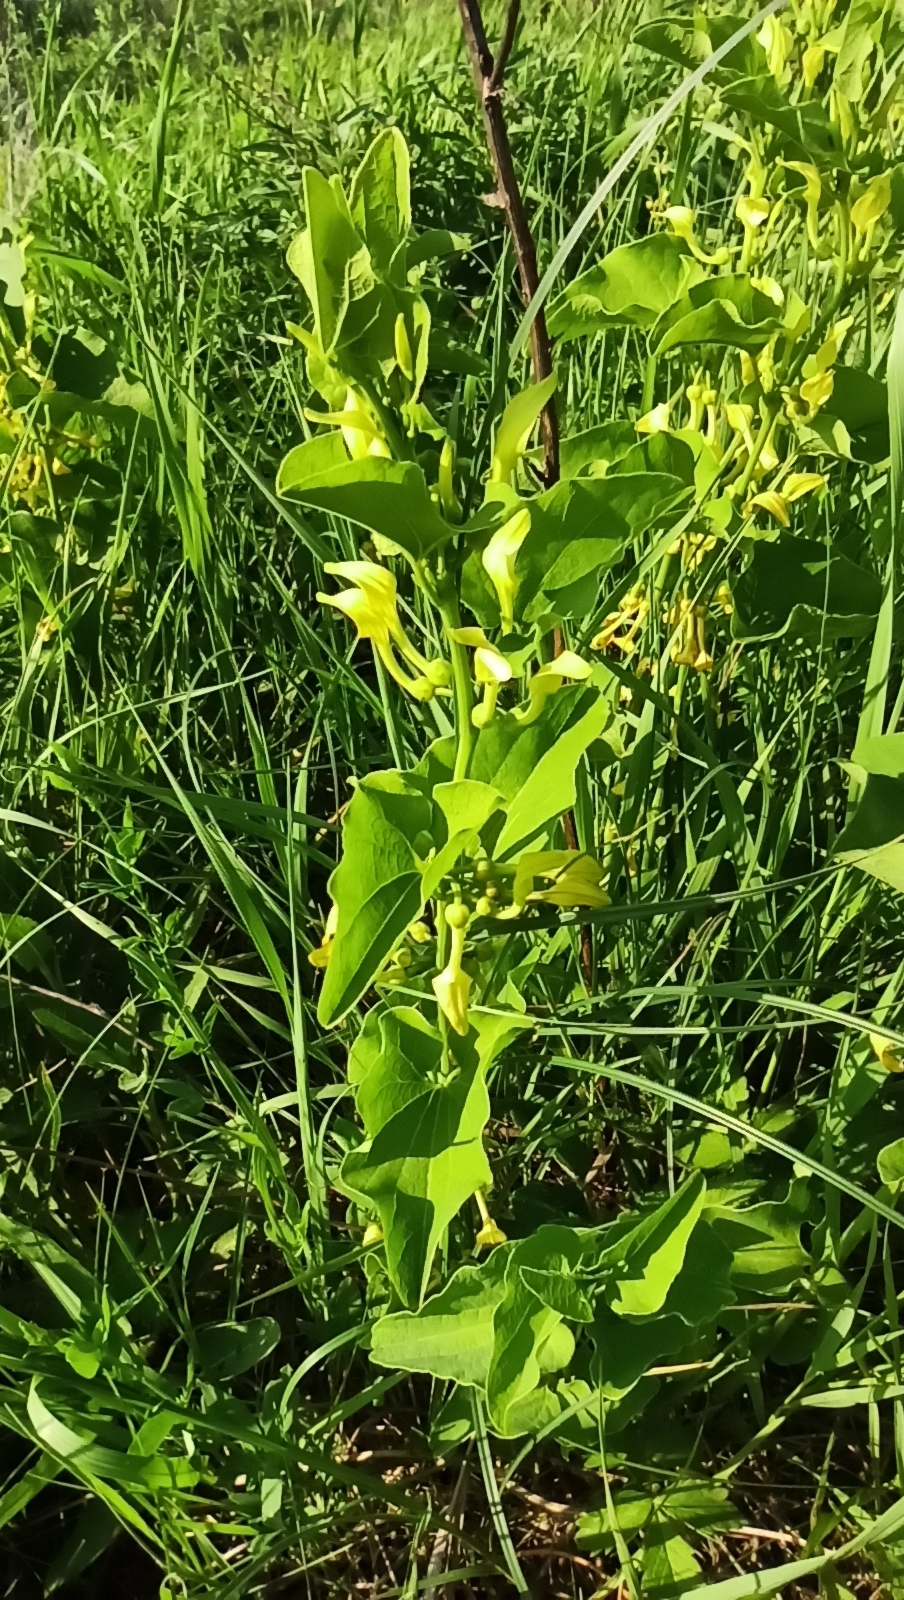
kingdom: Plantae
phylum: Tracheophyta
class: Magnoliopsida
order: Piperales
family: Aristolochiaceae
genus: Aristolochia
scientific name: Aristolochia clematitis
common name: Birthwort
